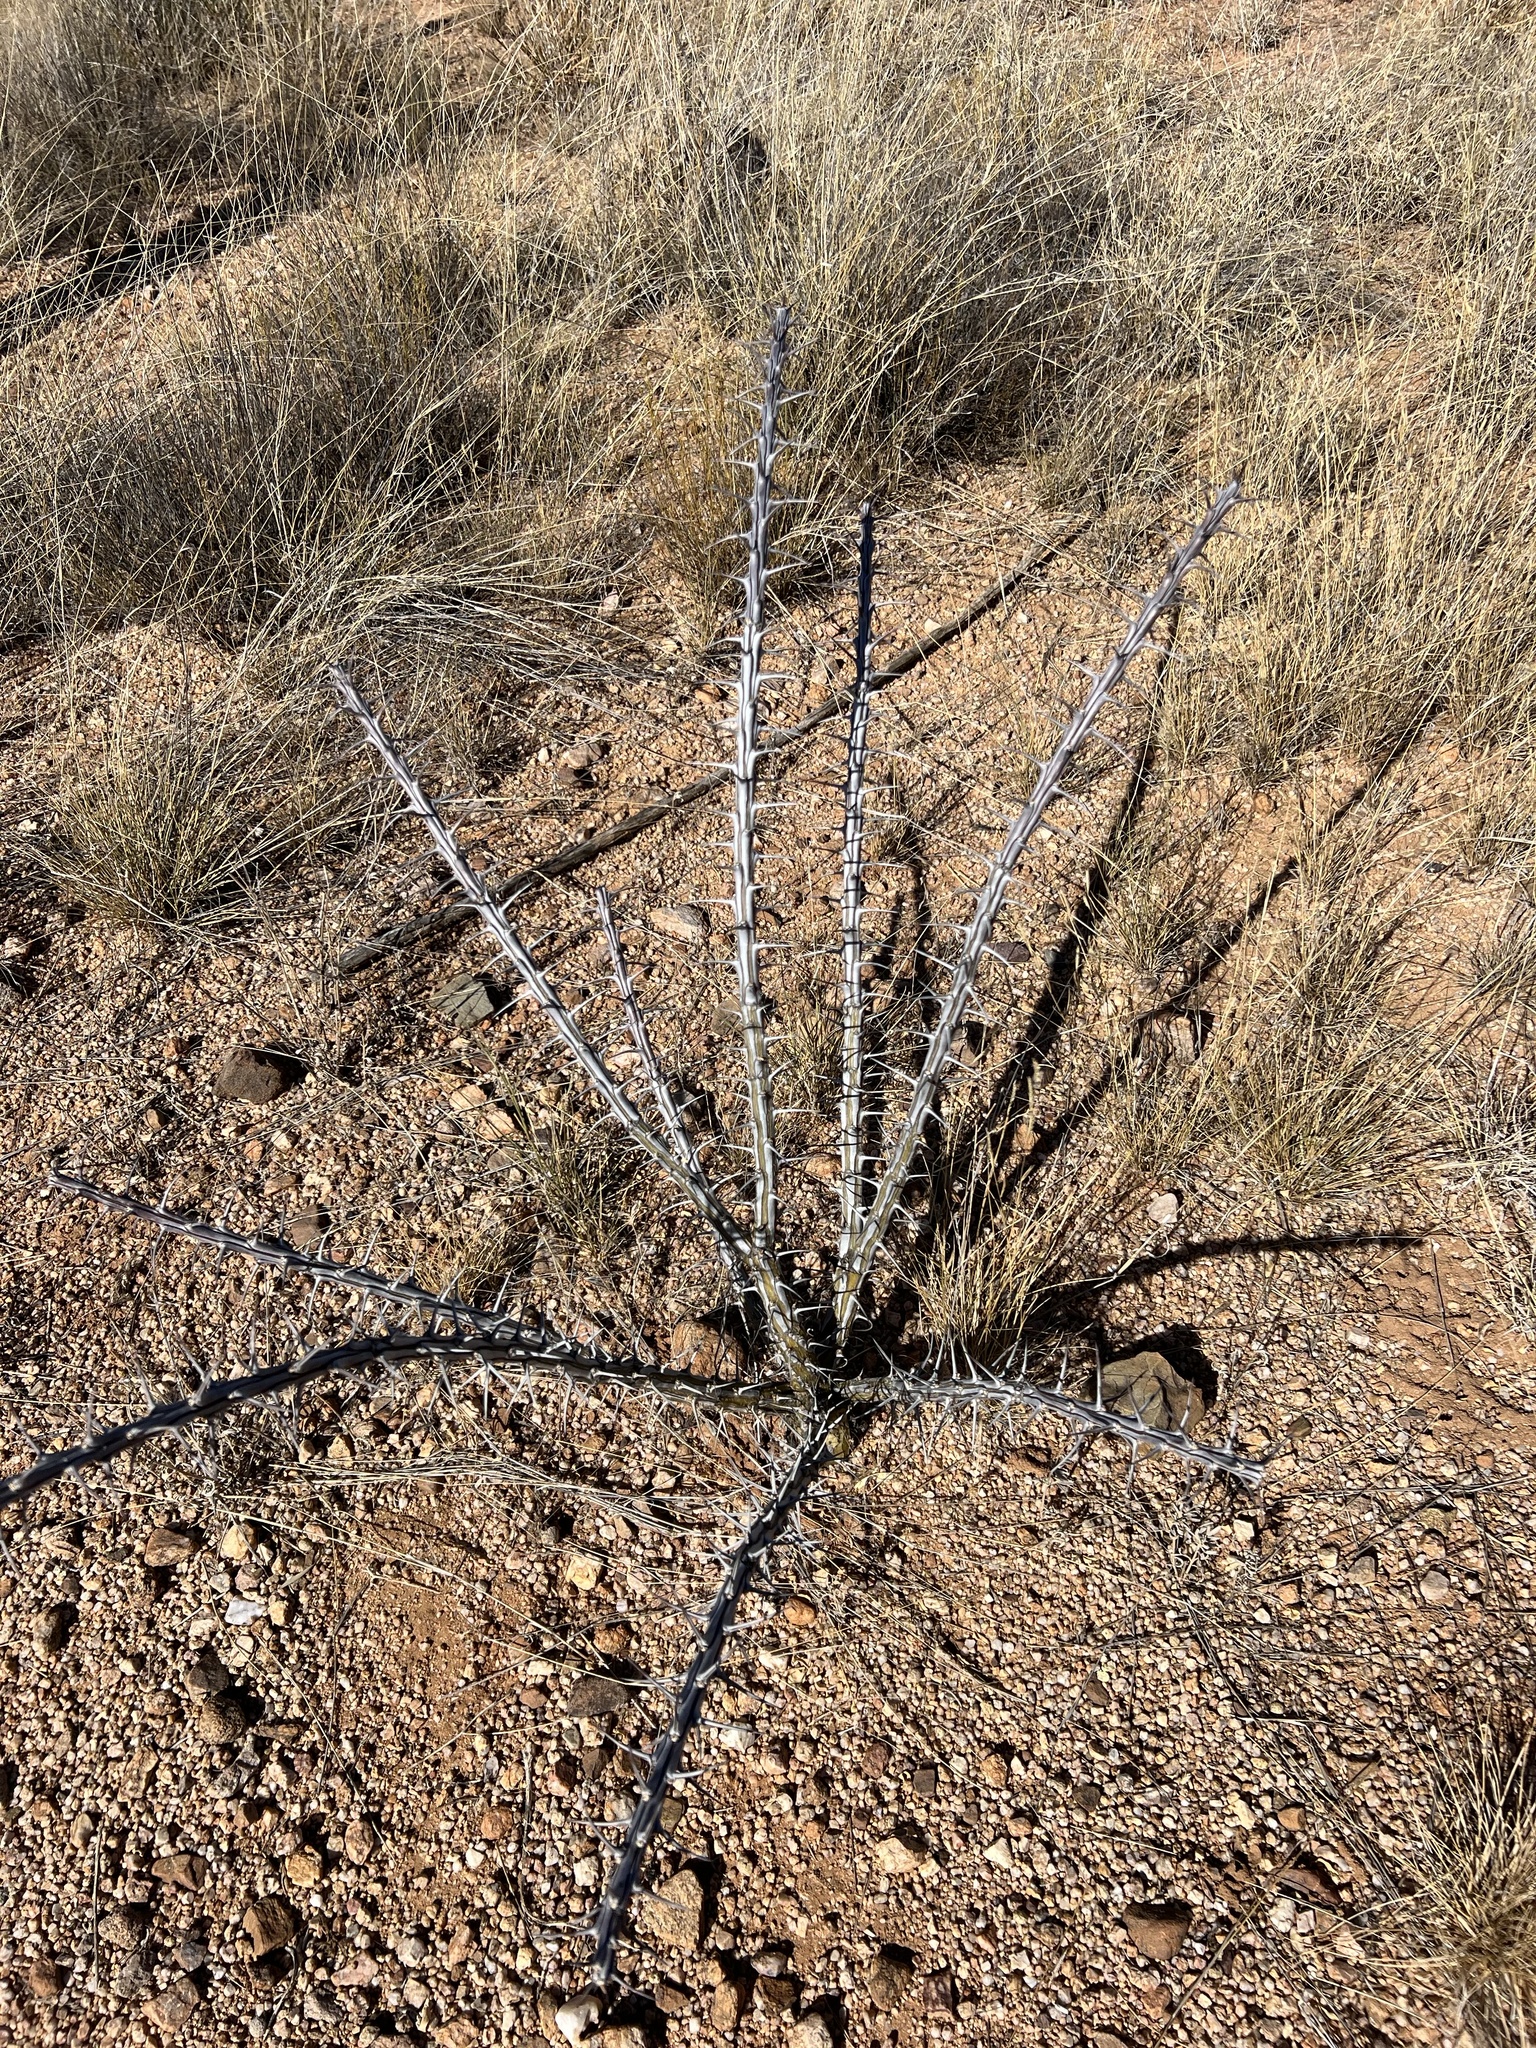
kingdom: Plantae
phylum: Tracheophyta
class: Magnoliopsida
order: Ericales
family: Fouquieriaceae
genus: Fouquieria
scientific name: Fouquieria splendens
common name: Vine-cactus
